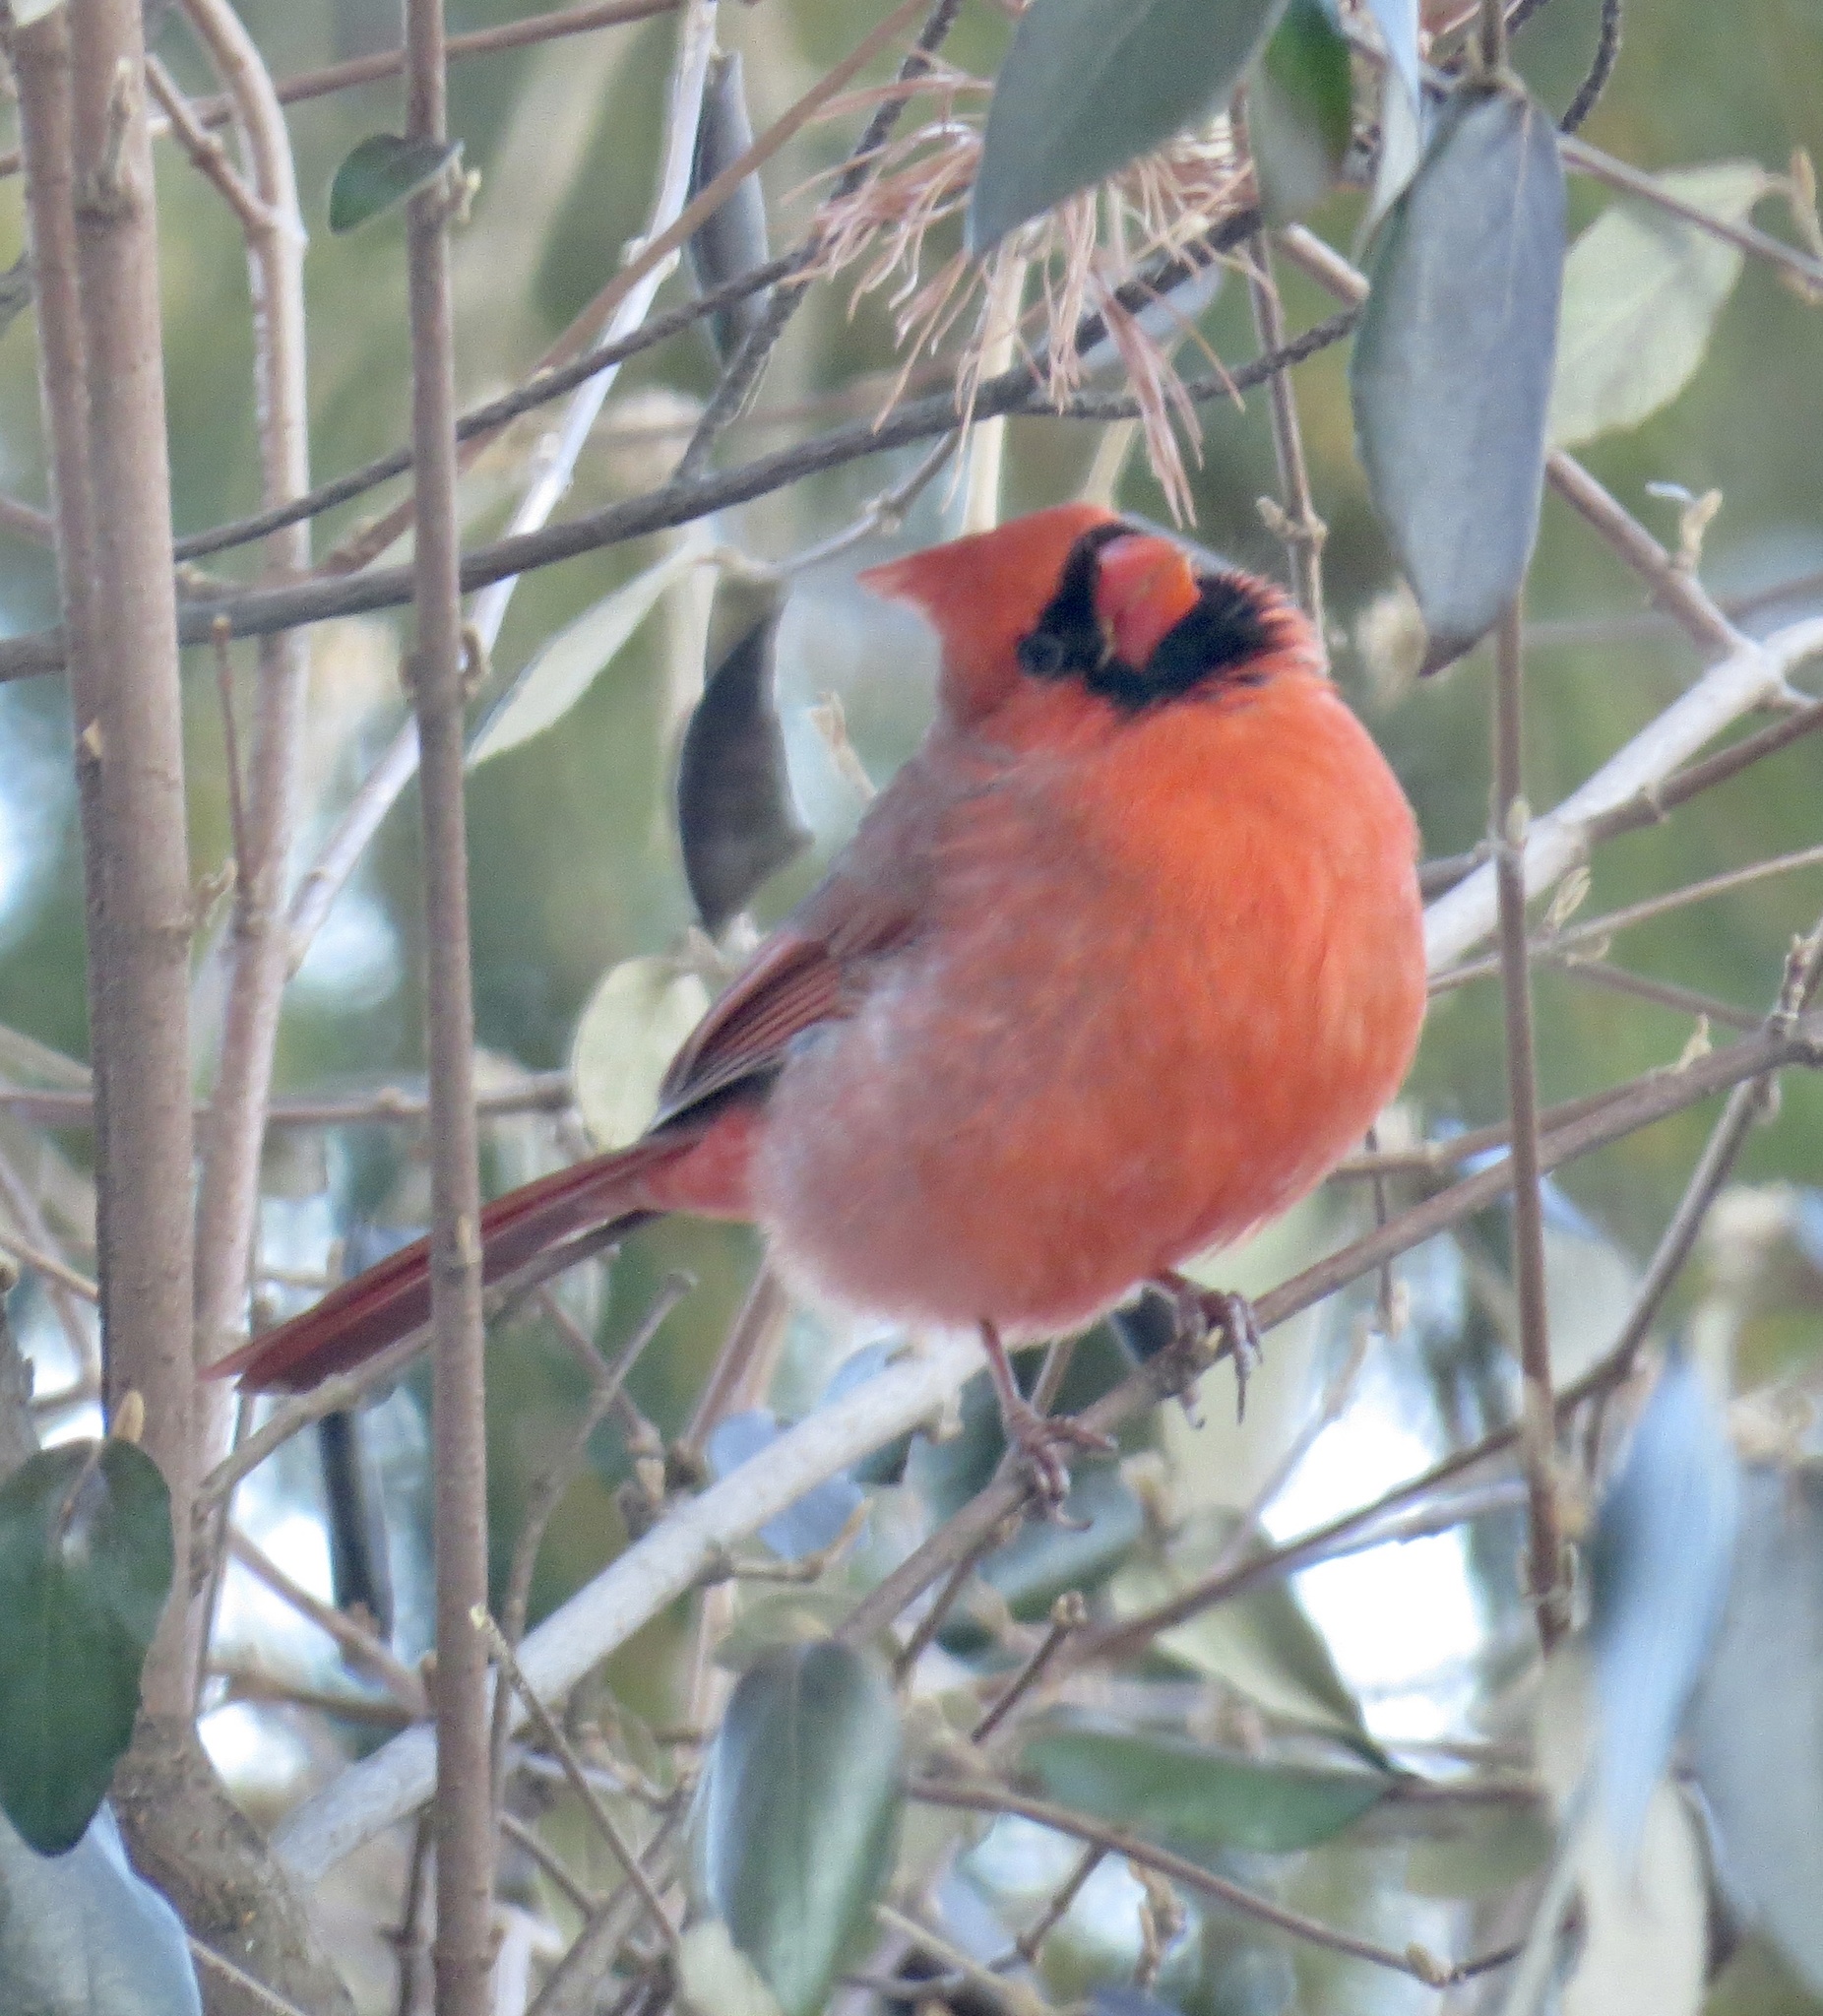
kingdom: Animalia
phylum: Chordata
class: Aves
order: Passeriformes
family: Cardinalidae
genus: Cardinalis
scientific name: Cardinalis cardinalis
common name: Northern cardinal
